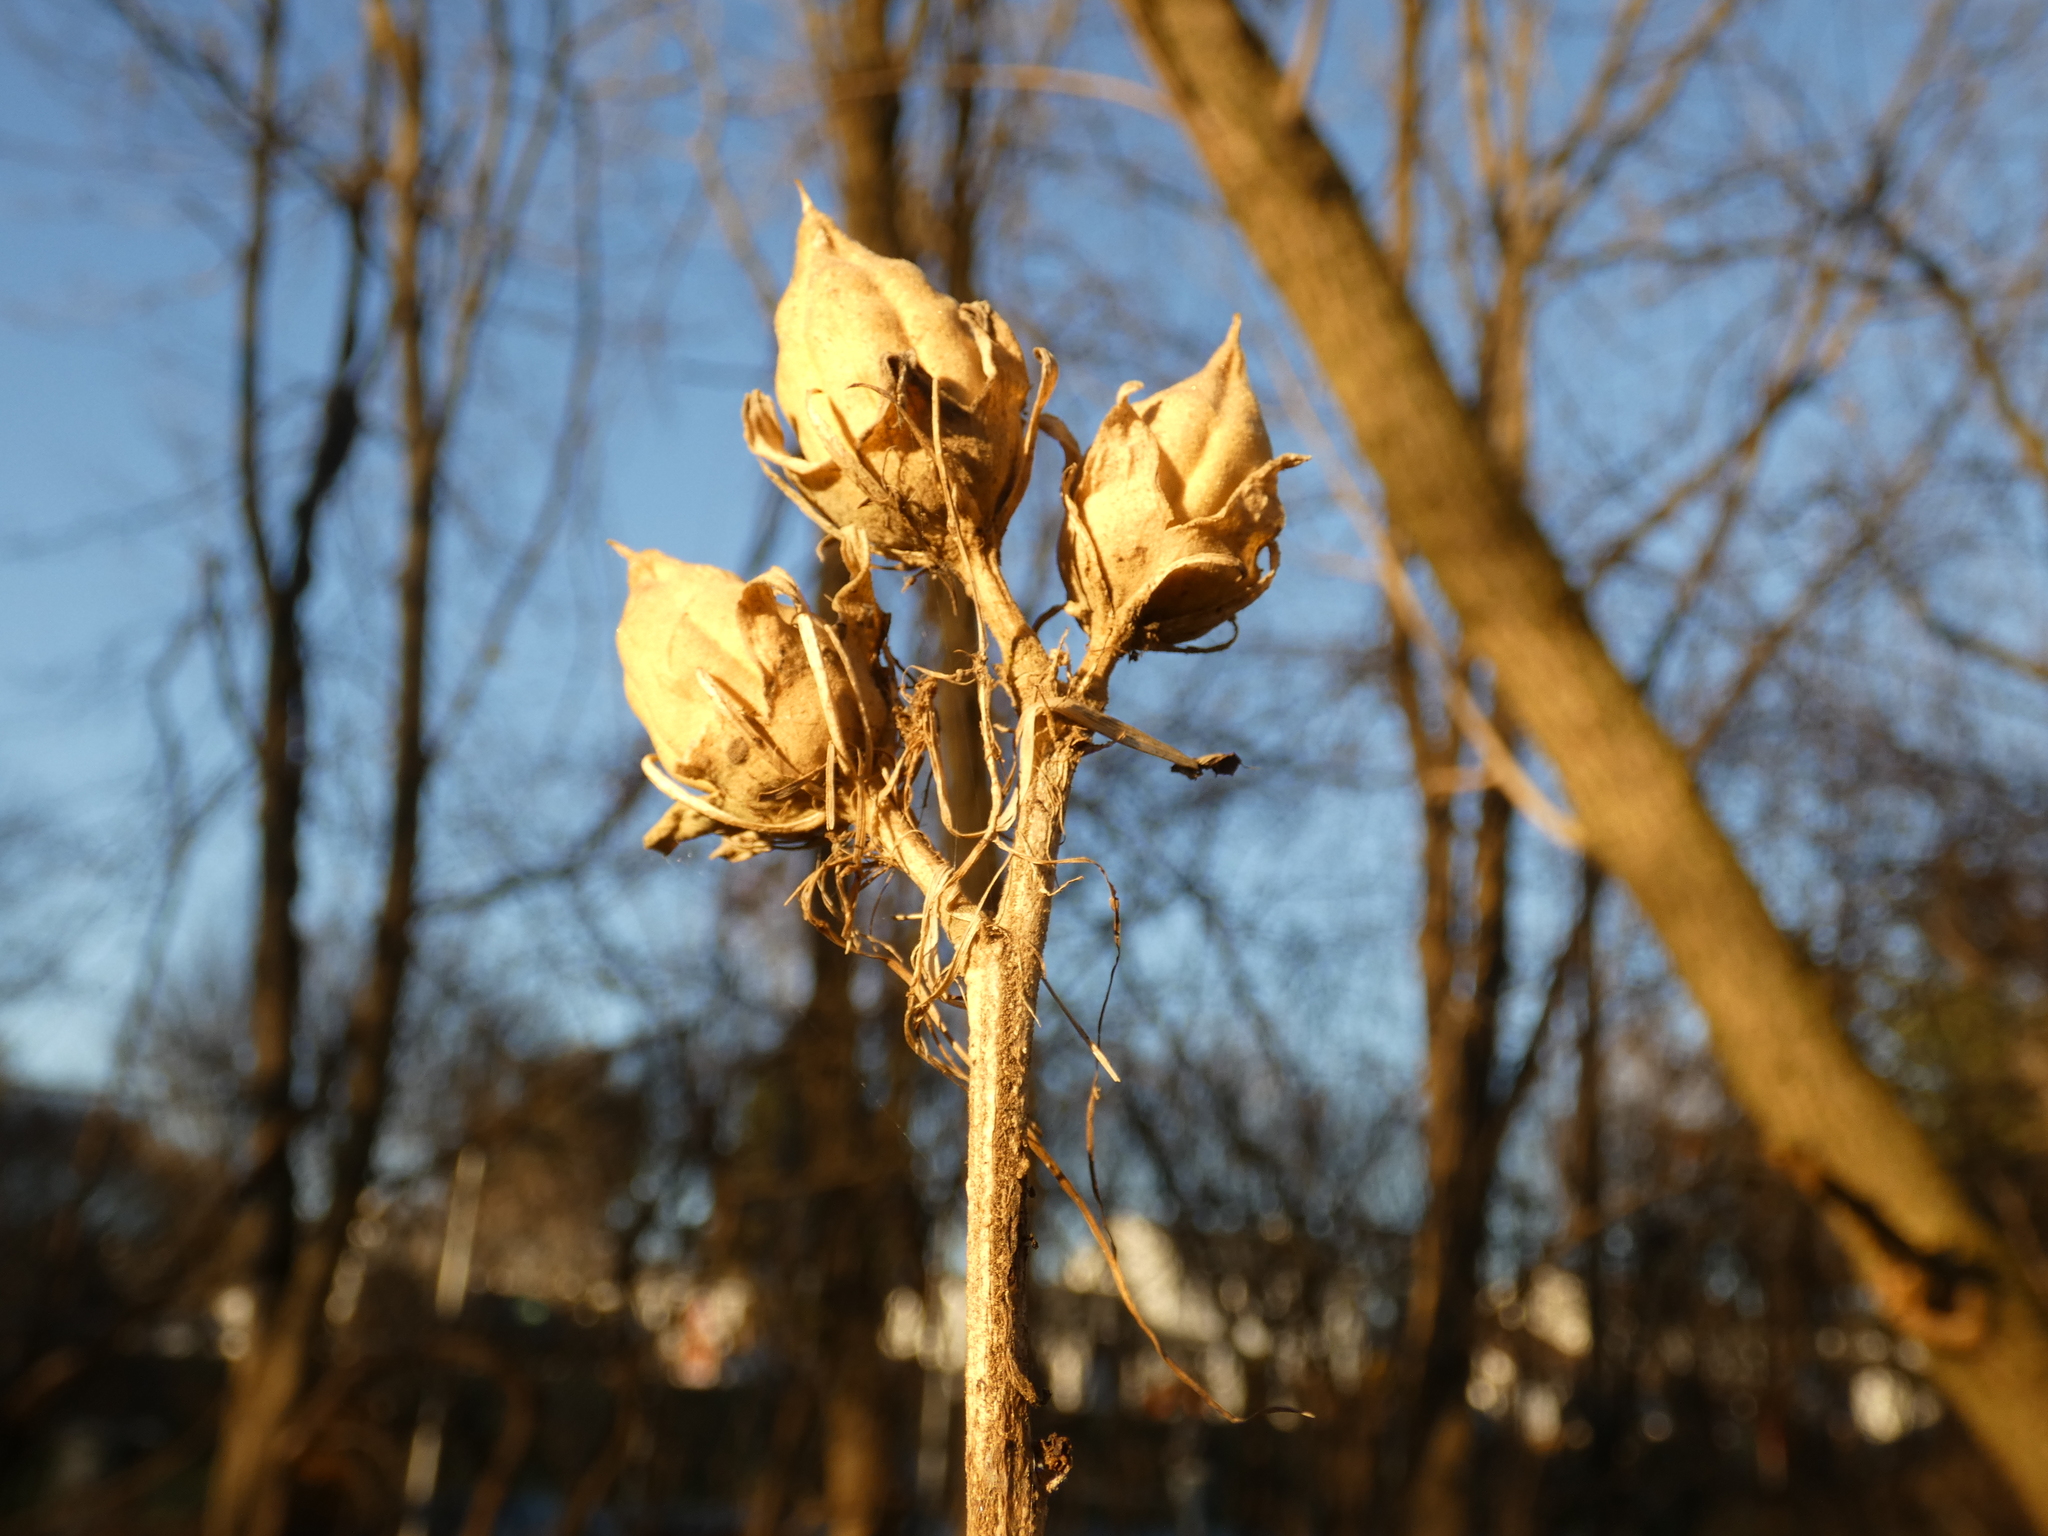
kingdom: Plantae
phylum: Tracheophyta
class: Magnoliopsida
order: Malvales
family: Malvaceae
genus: Hibiscus
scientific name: Hibiscus syriacus
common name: Syrian ketmia
